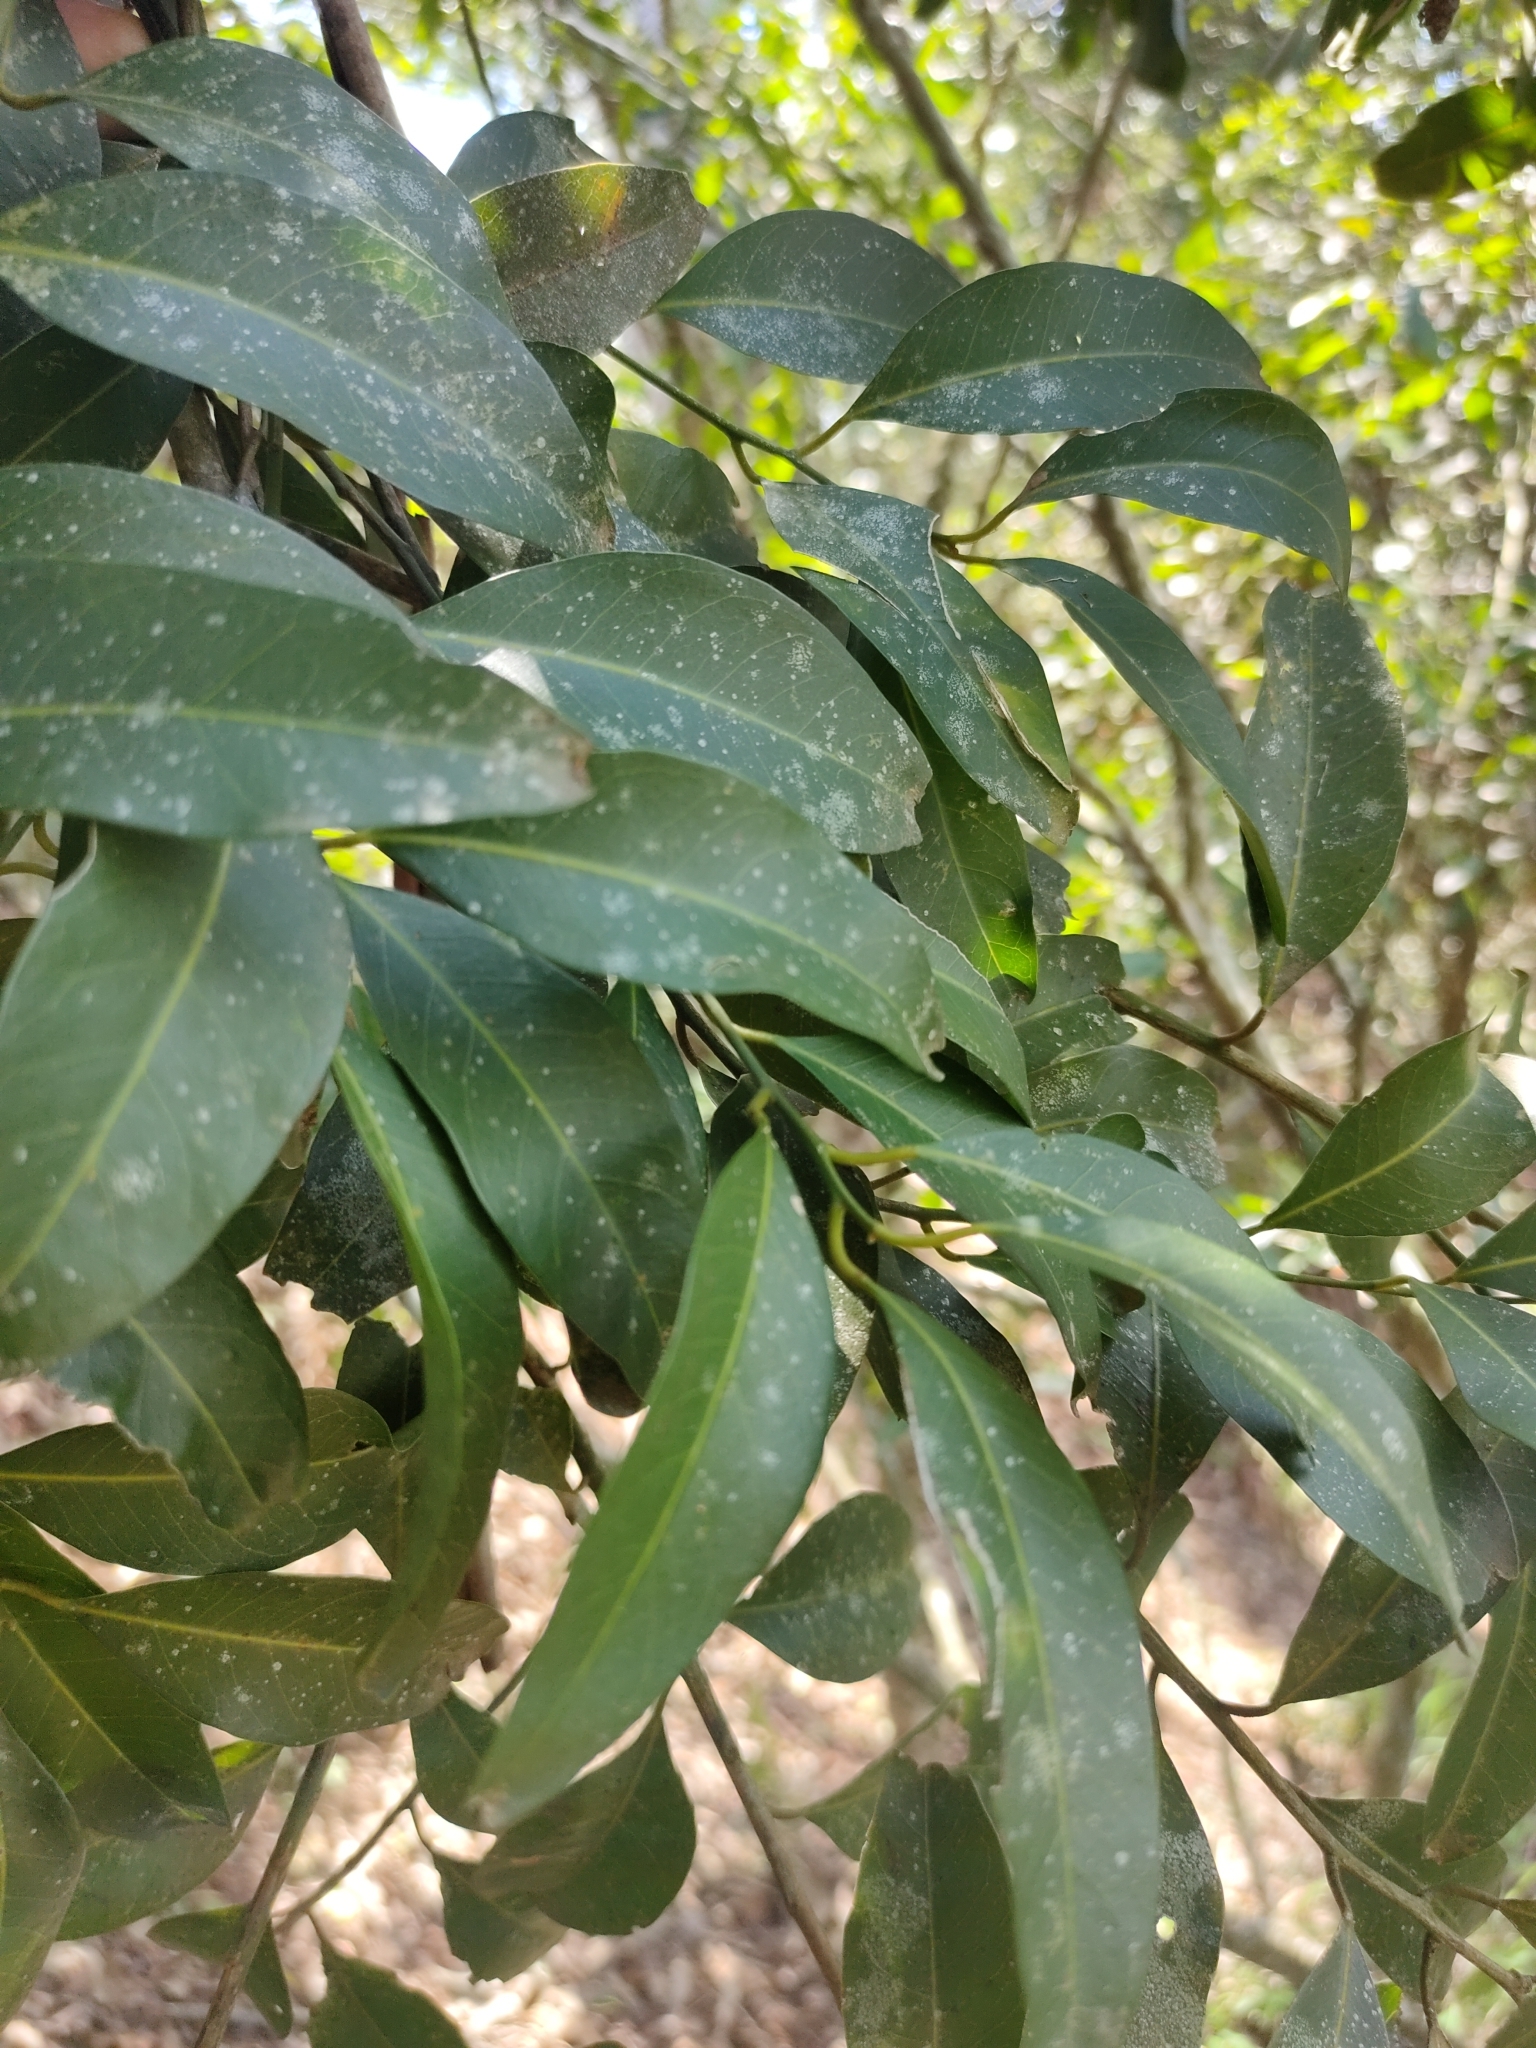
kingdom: Plantae
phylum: Tracheophyta
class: Magnoliopsida
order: Brassicales
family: Capparaceae
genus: Capparis
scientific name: Capparis arborea
